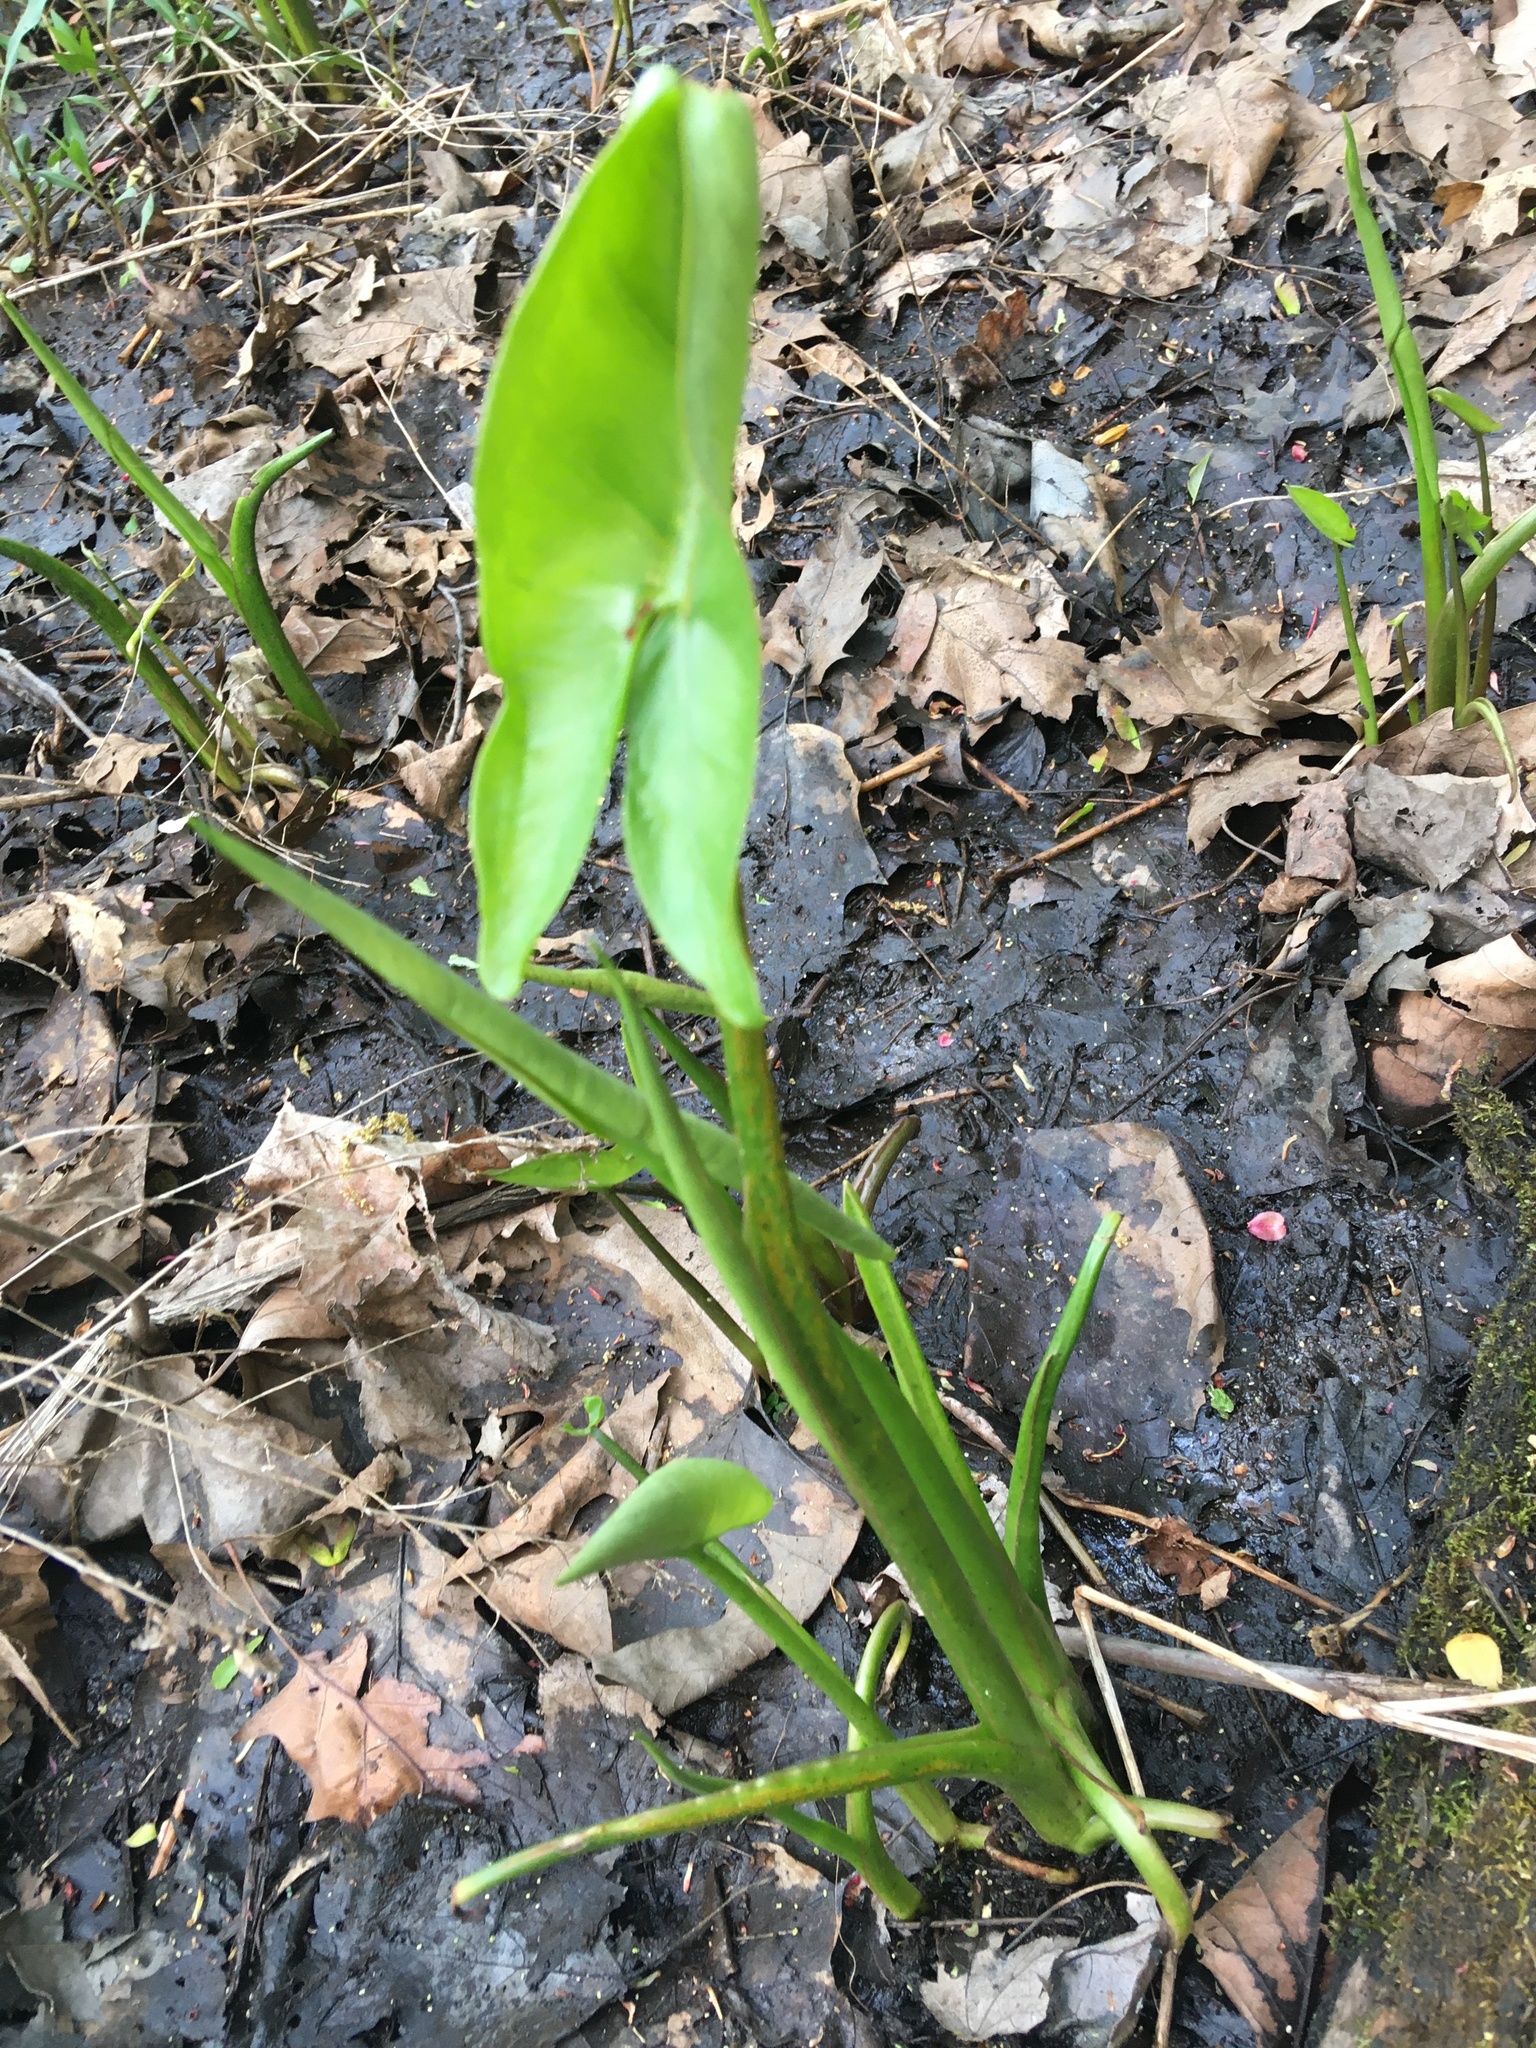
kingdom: Plantae
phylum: Tracheophyta
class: Liliopsida
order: Alismatales
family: Araceae
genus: Peltandra
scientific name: Peltandra virginica
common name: Arrow arum
